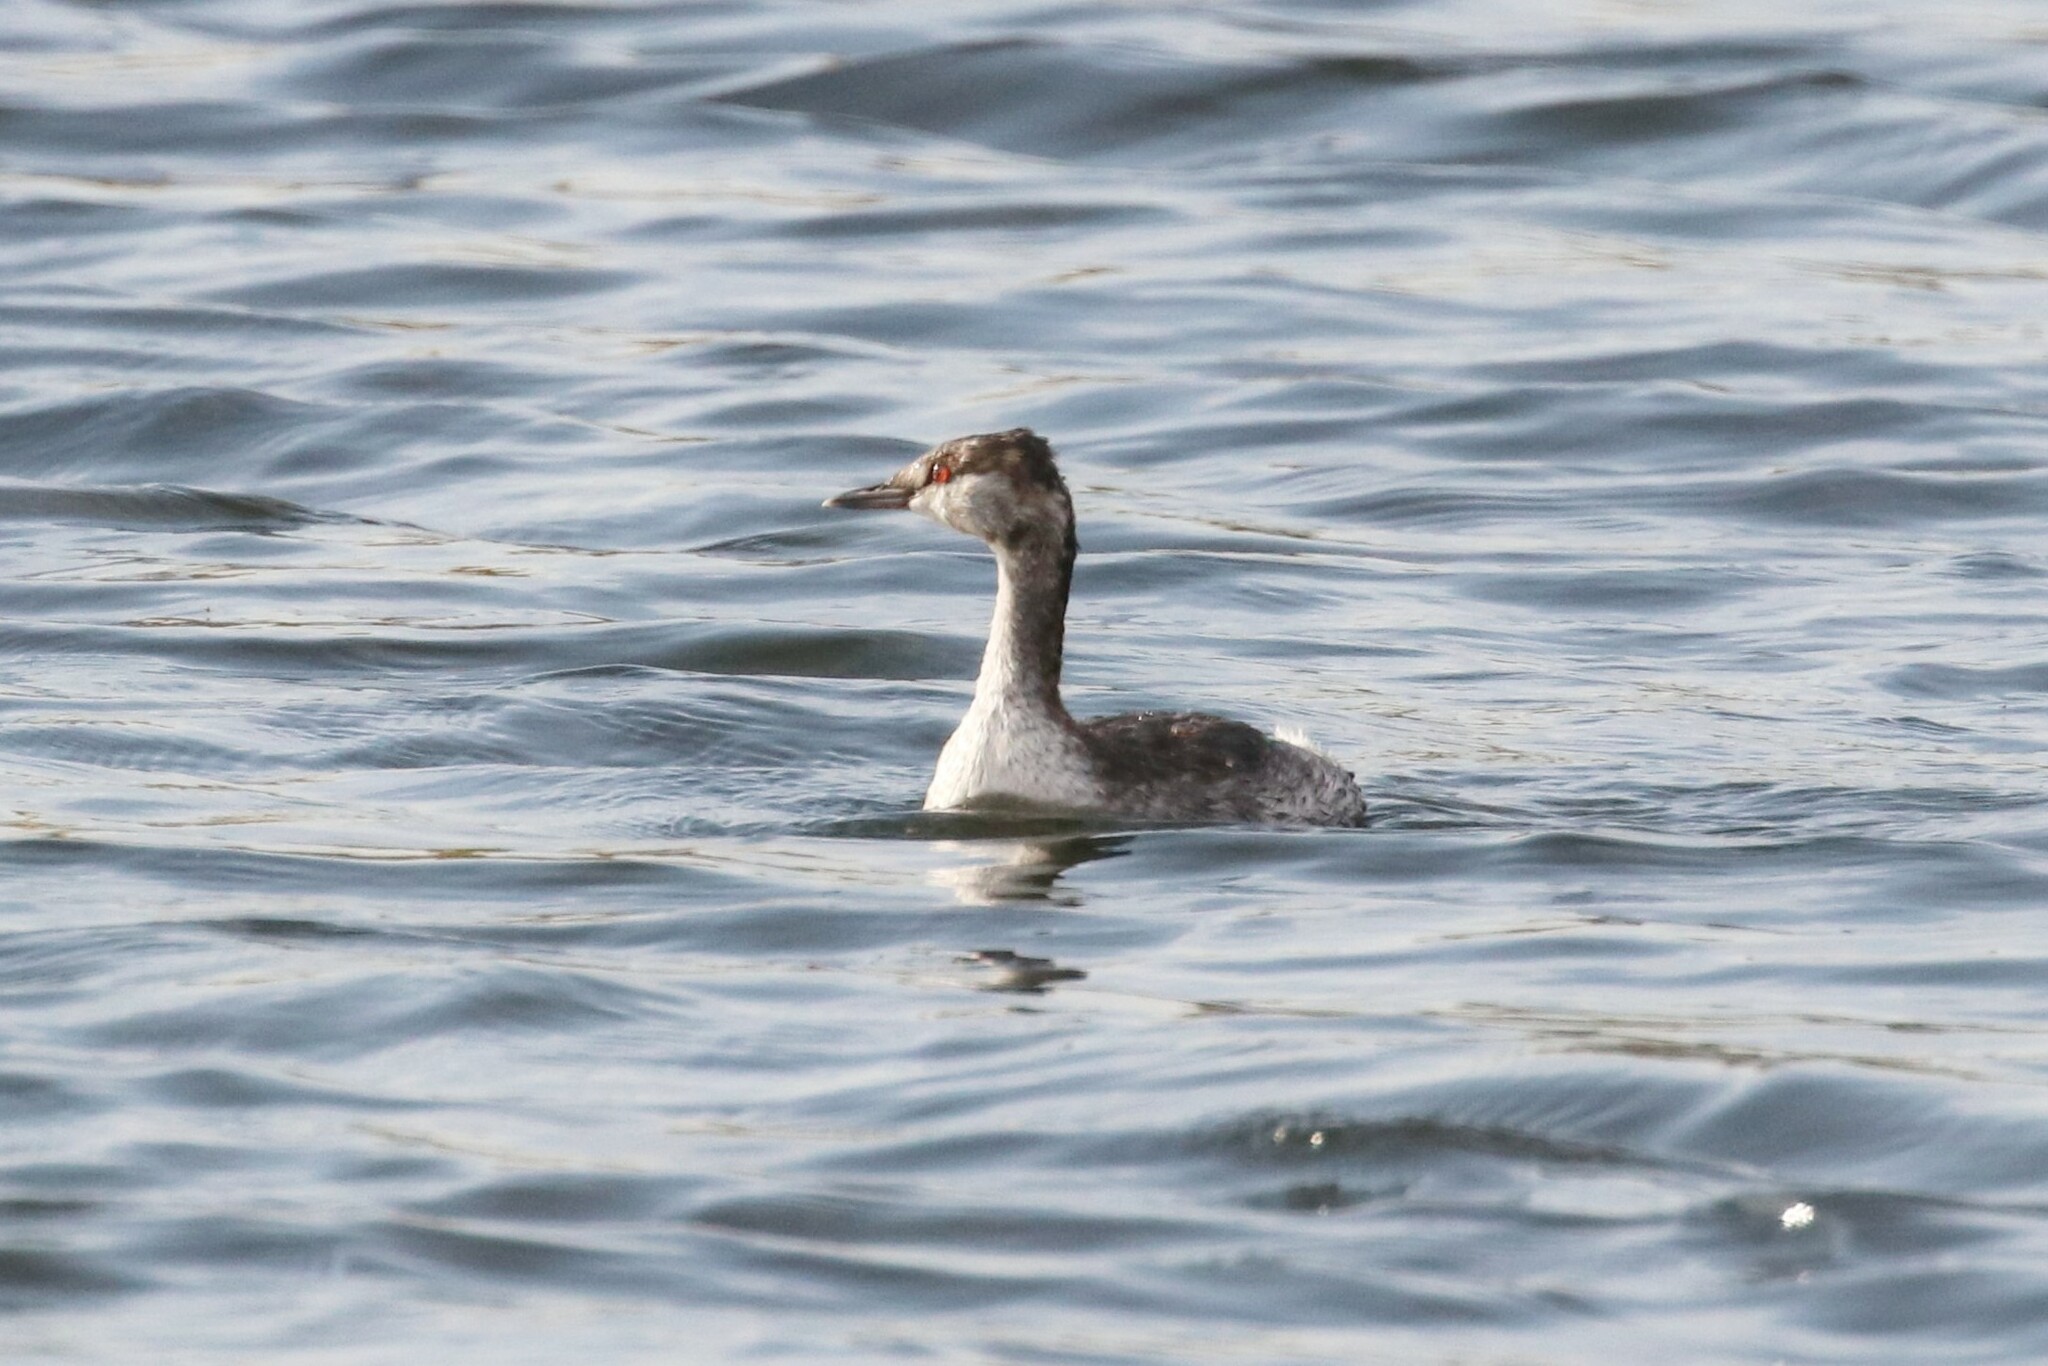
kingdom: Animalia
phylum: Chordata
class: Aves
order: Podicipediformes
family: Podicipedidae
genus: Podiceps
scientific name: Podiceps auritus
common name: Horned grebe
